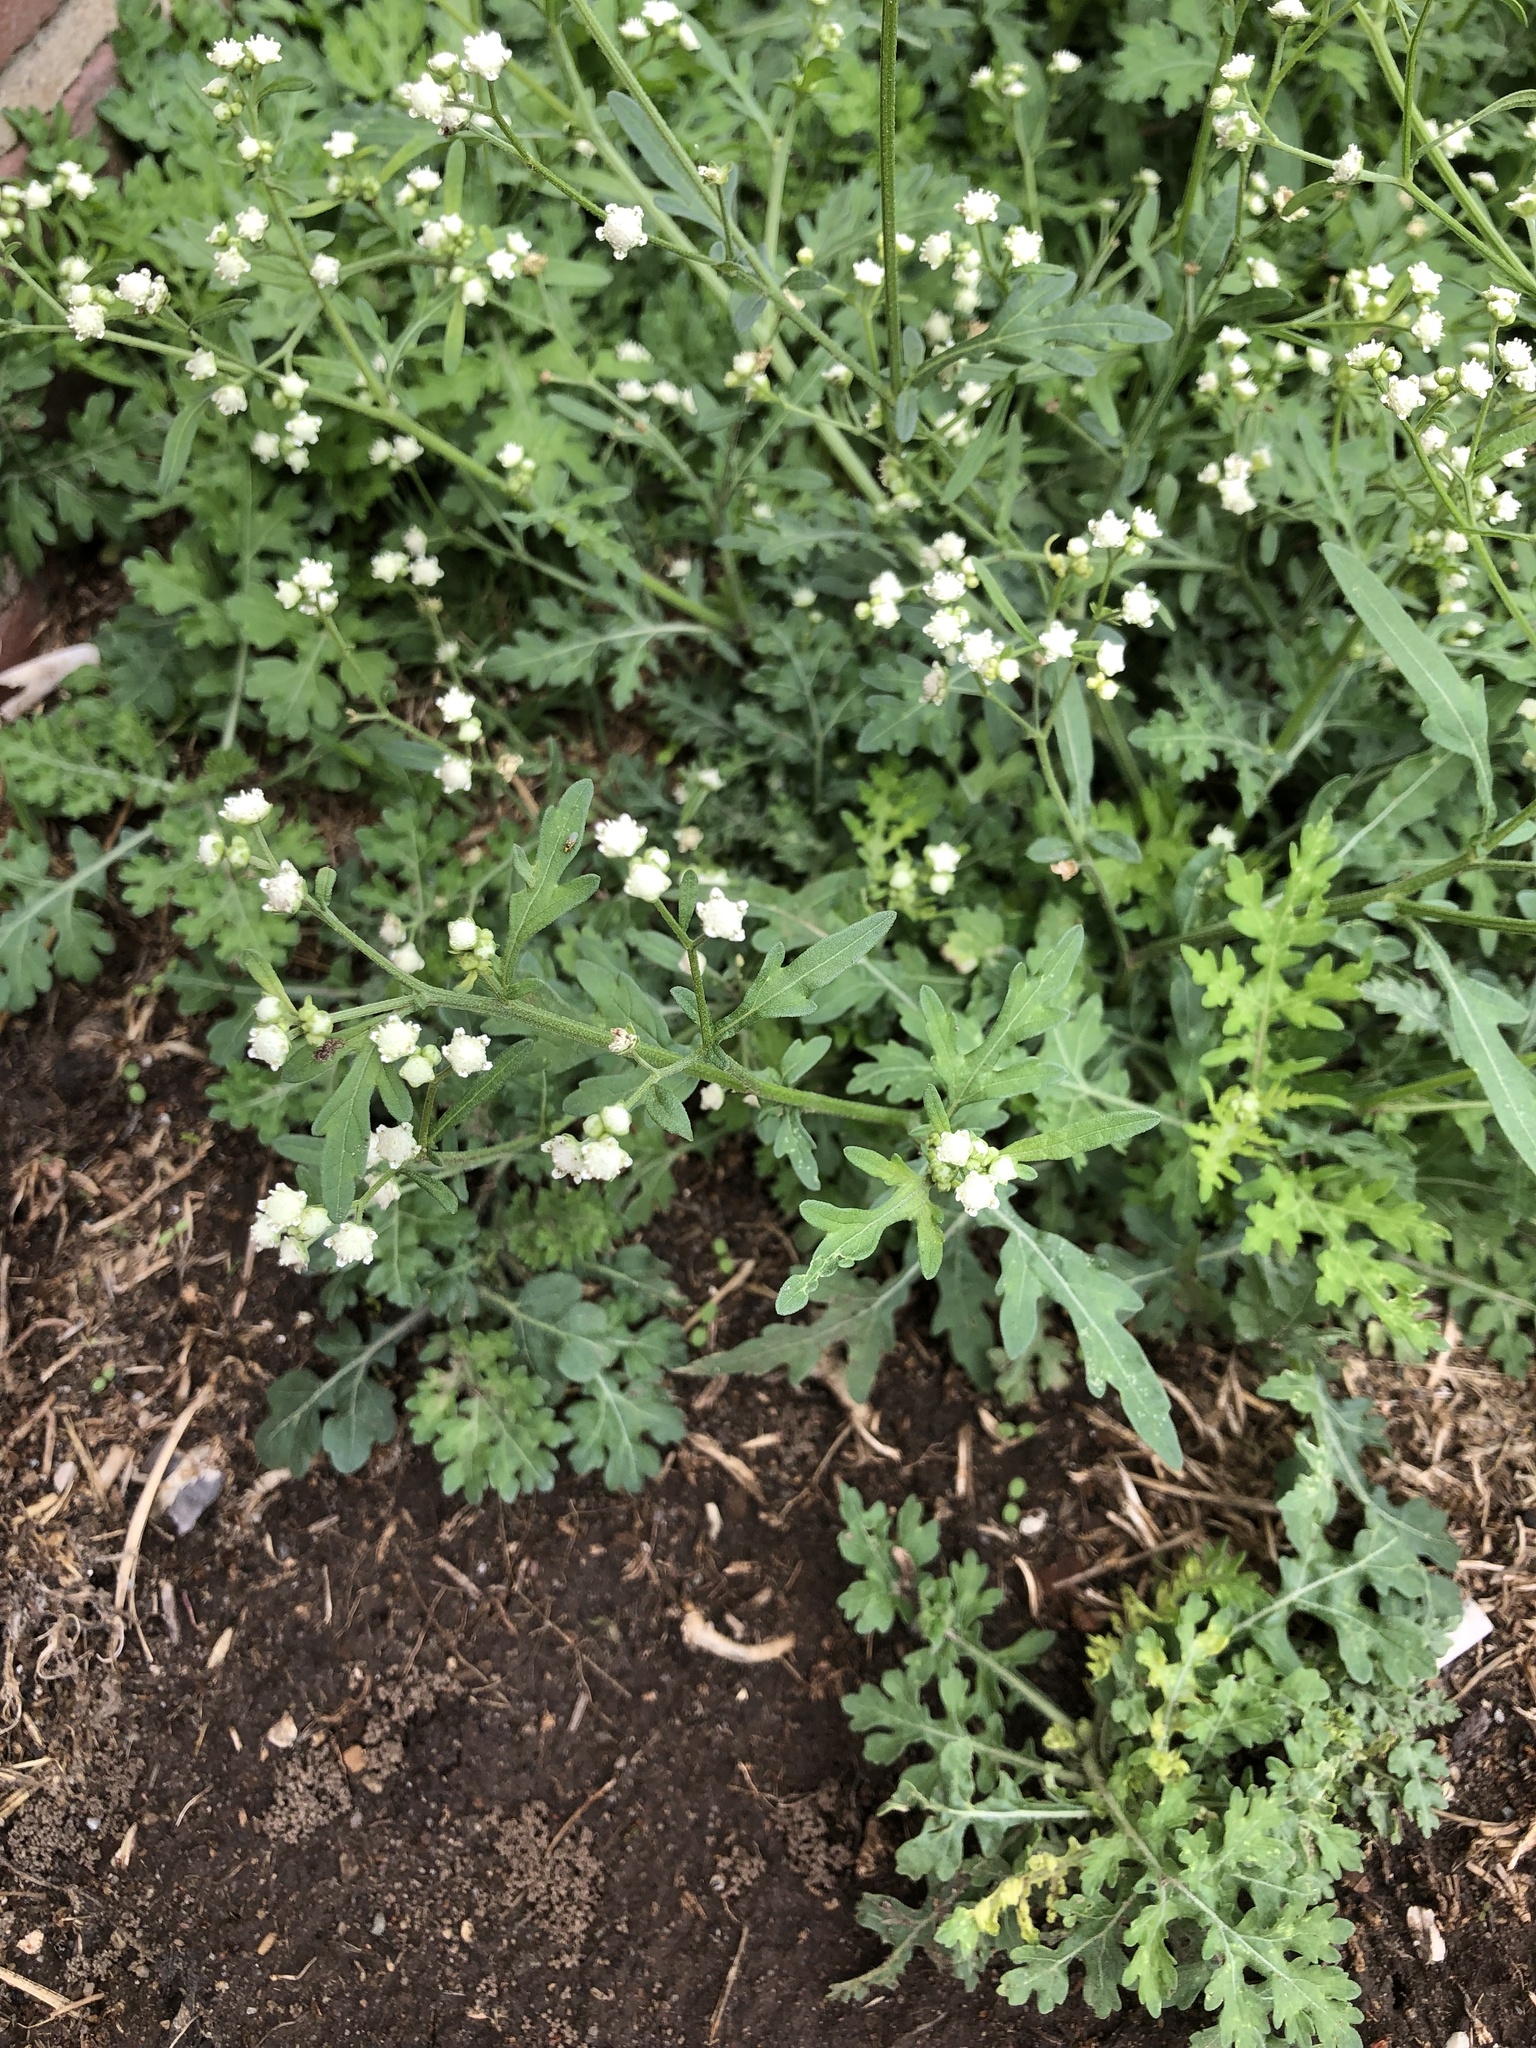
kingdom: Plantae
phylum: Tracheophyta
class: Magnoliopsida
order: Asterales
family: Asteraceae
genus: Parthenium
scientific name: Parthenium hysterophorus
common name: Santa maria feverfew
